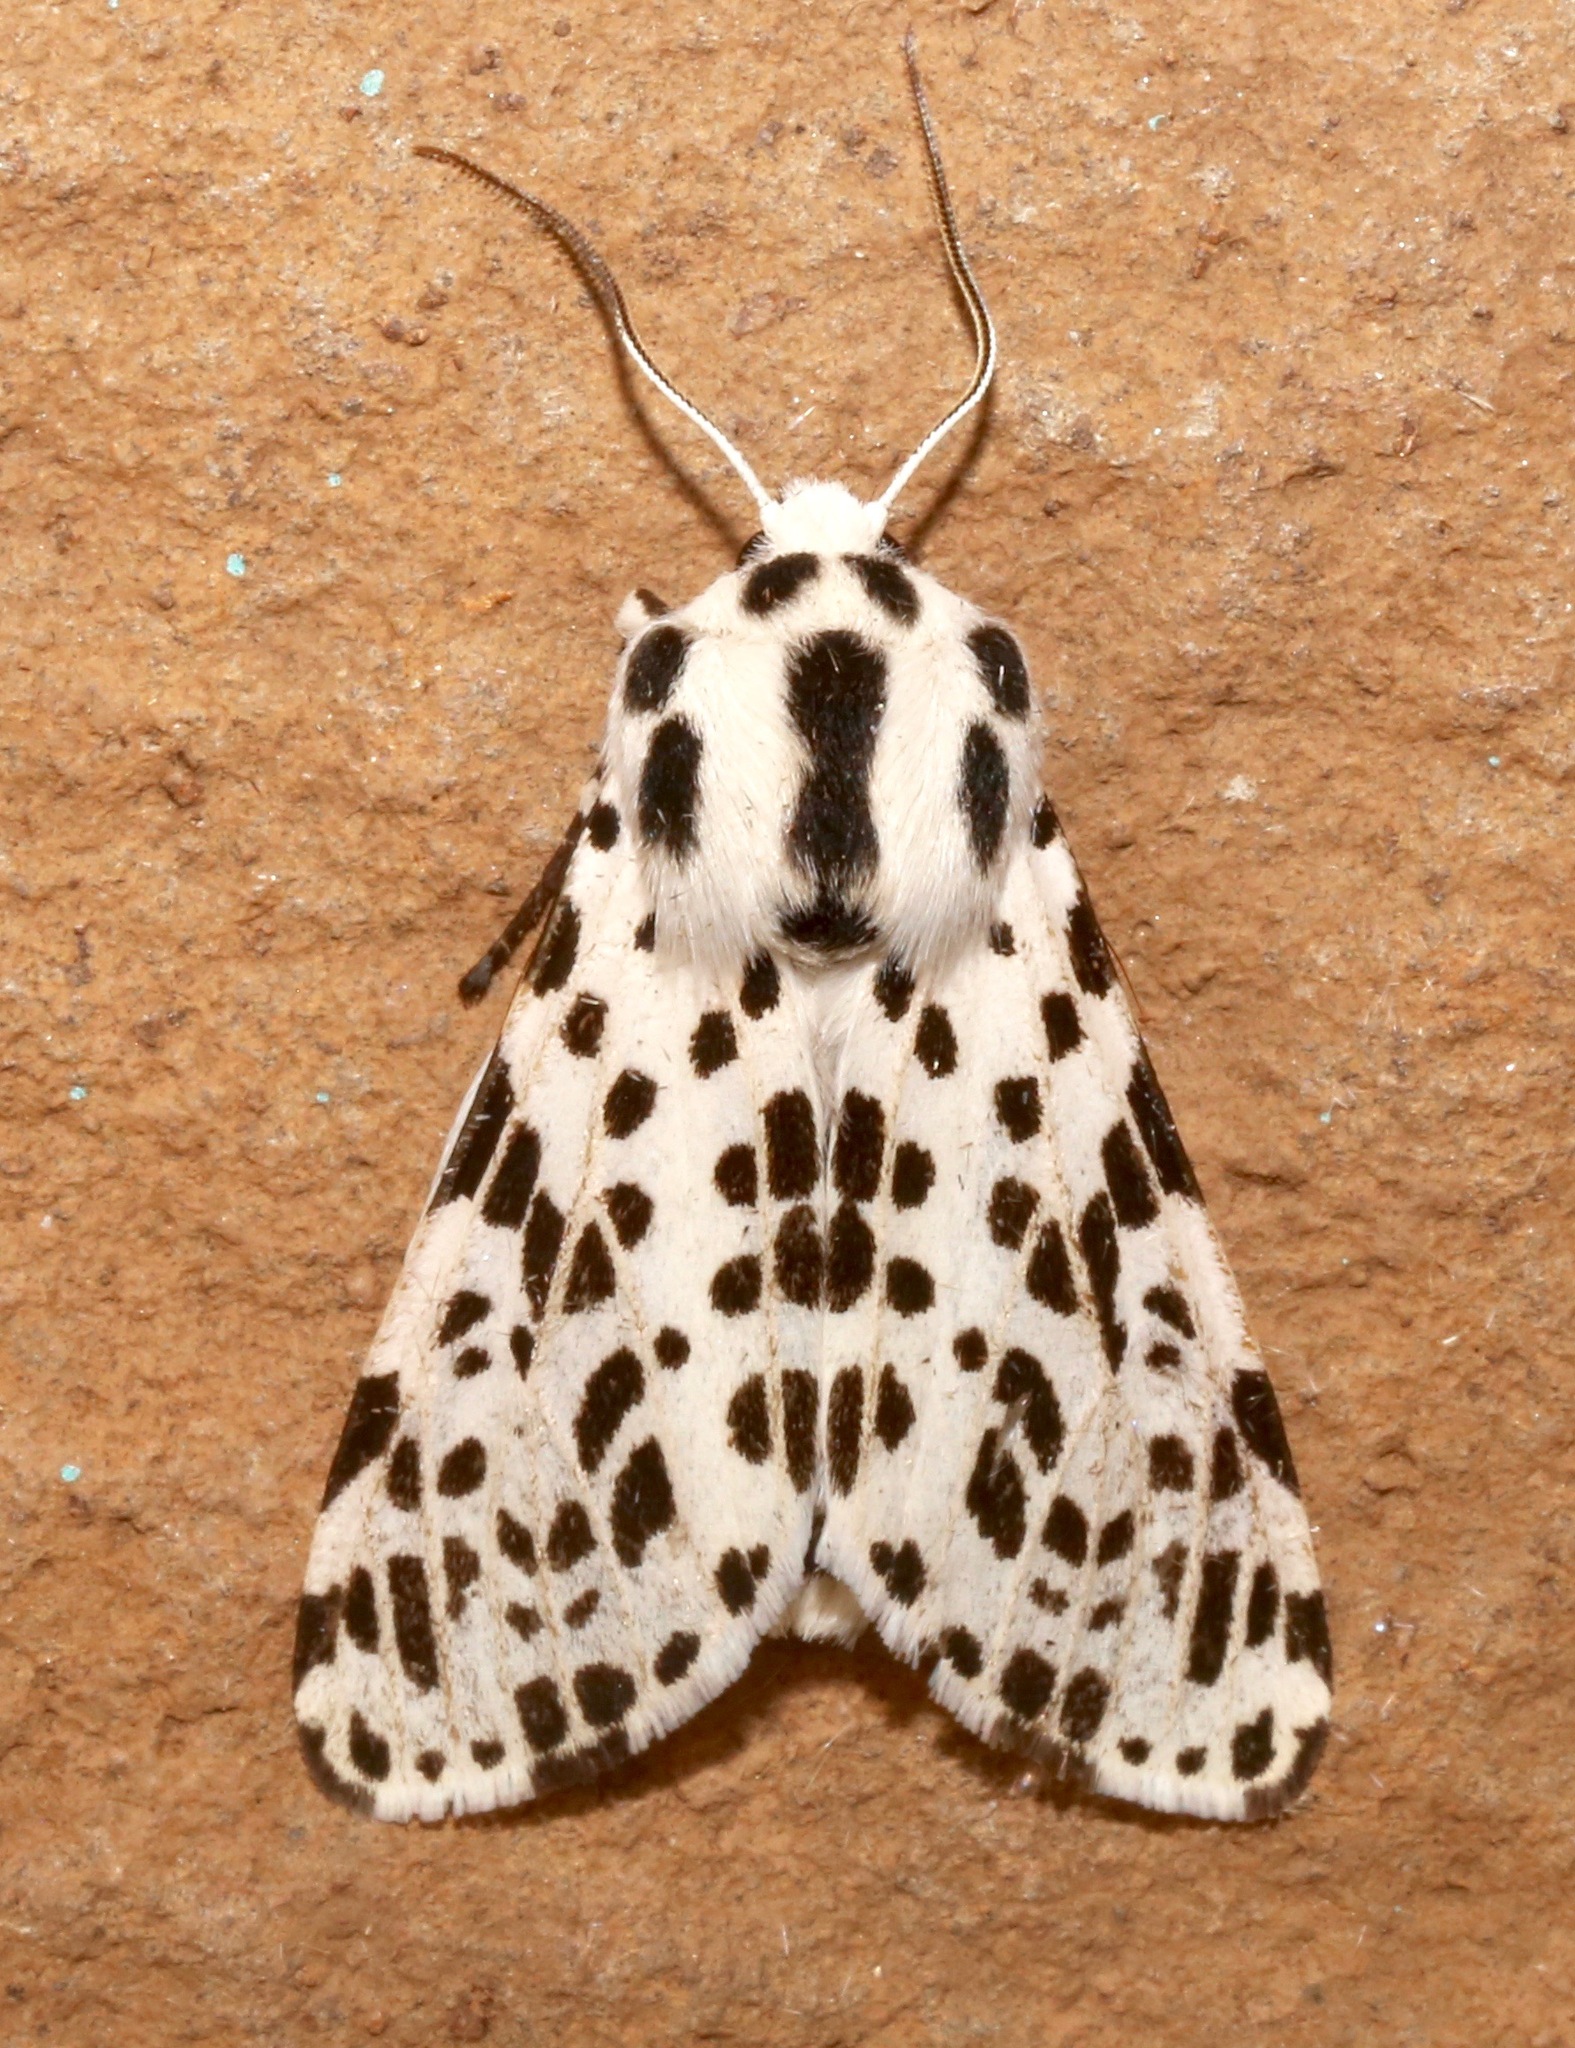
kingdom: Animalia
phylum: Arthropoda
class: Insecta
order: Lepidoptera
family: Erebidae
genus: Hypercompe
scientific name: Hypercompe permaculata
